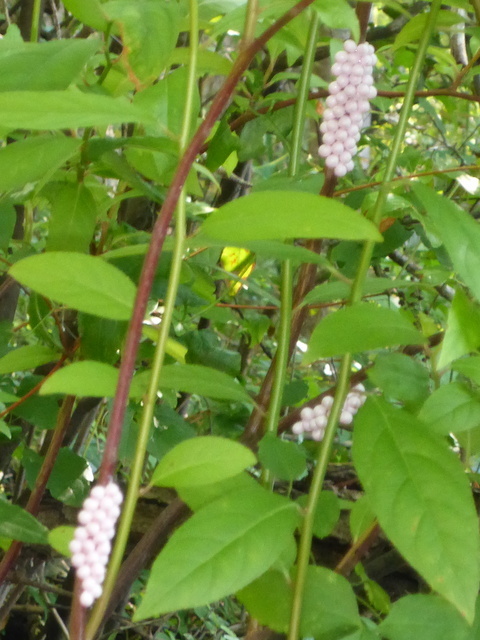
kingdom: Animalia
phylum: Mollusca
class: Gastropoda
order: Architaenioglossa
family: Ampullariidae
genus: Pomacea
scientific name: Pomacea paludosa
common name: Florida applesnail
